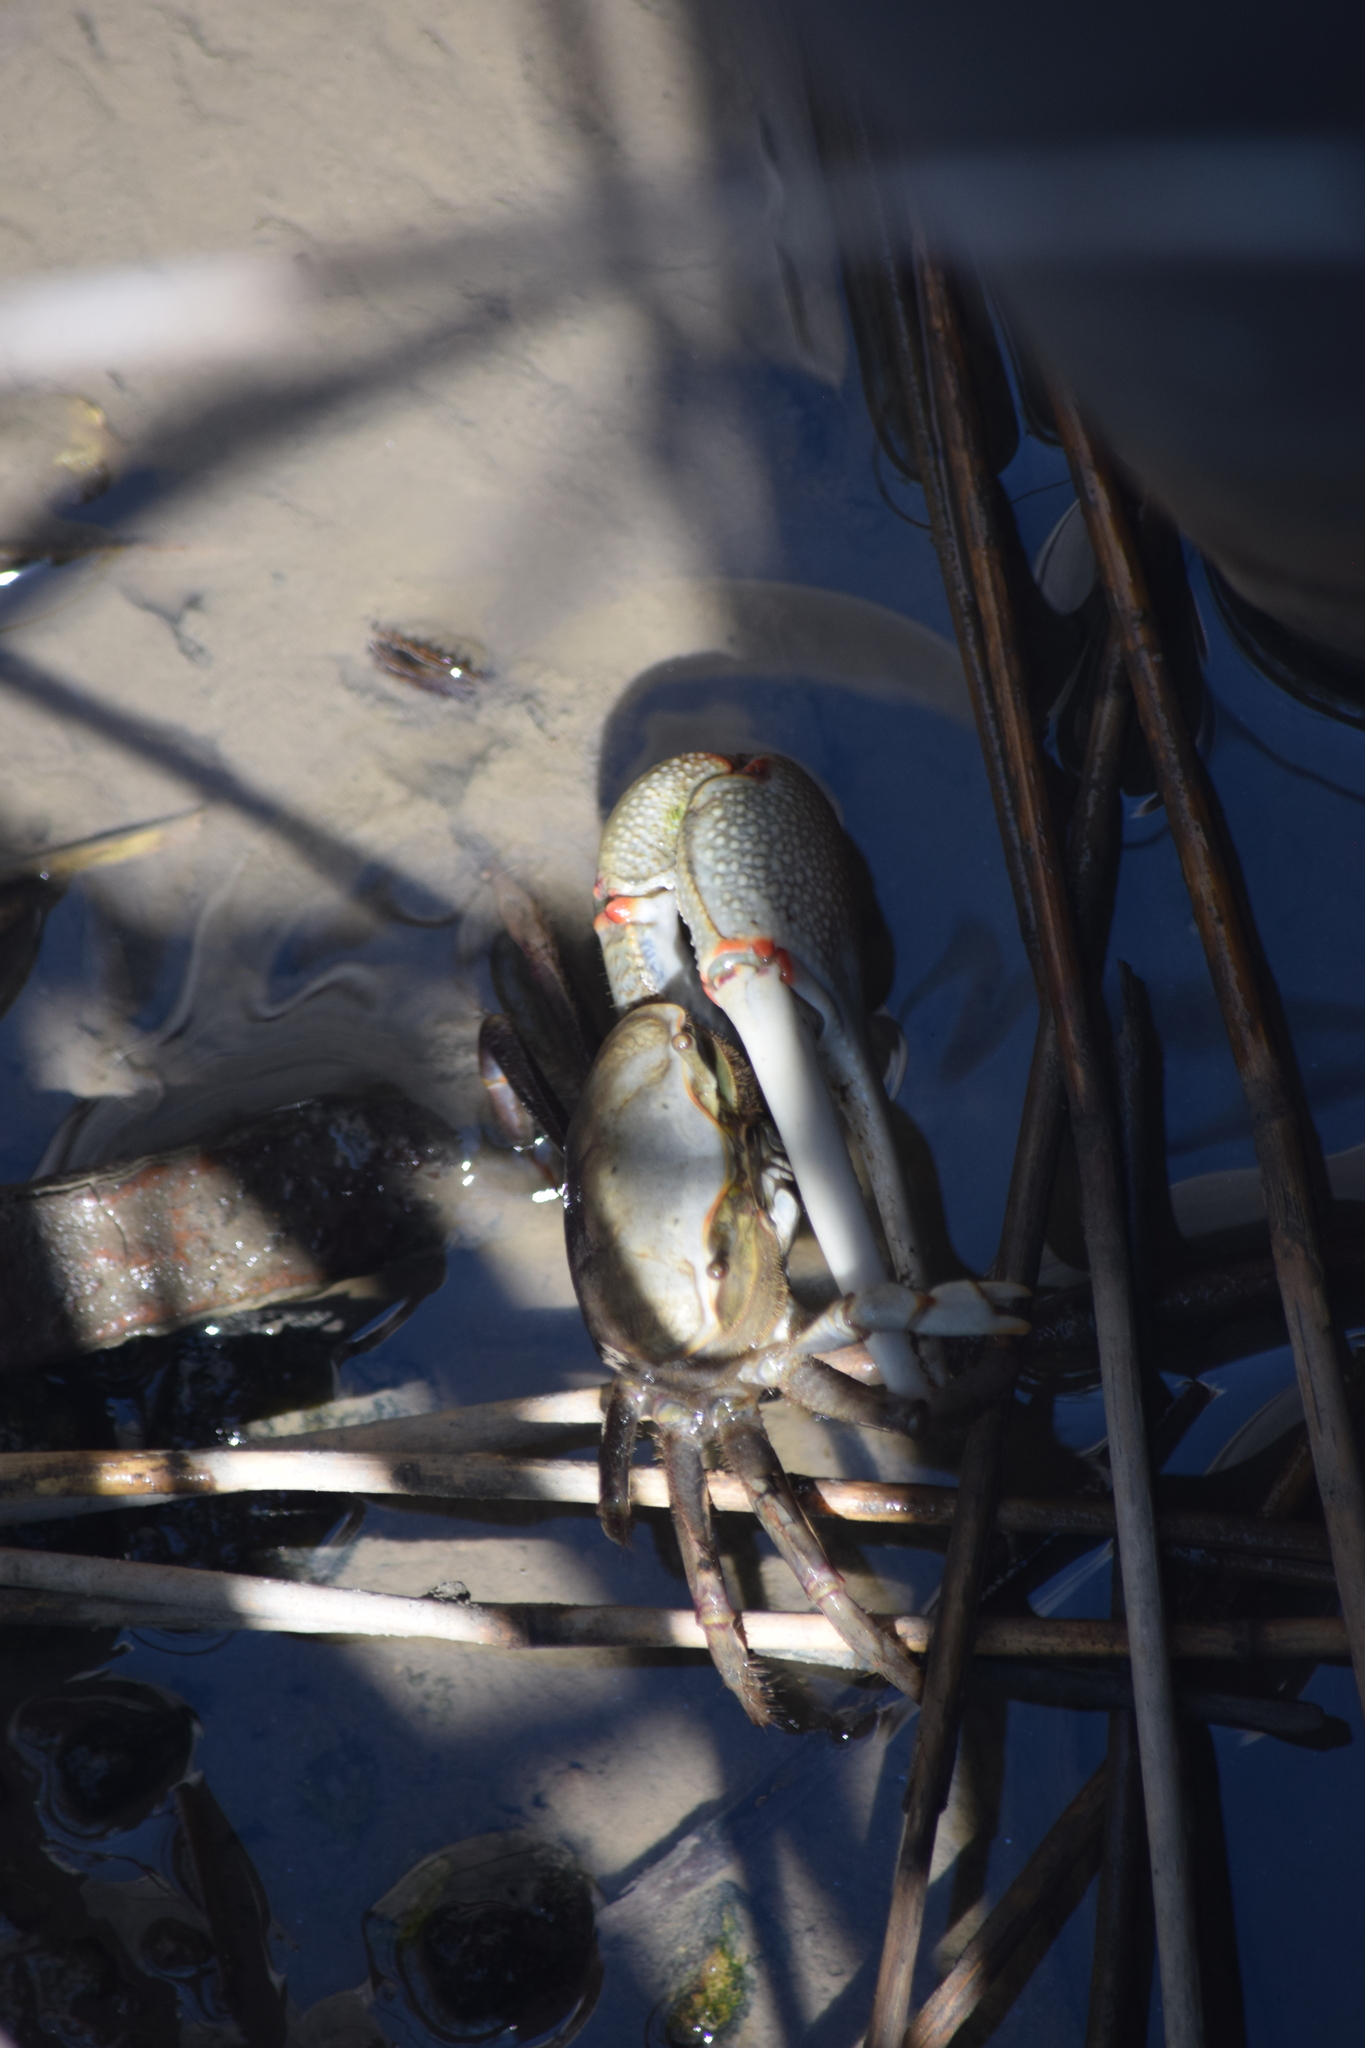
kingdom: Animalia
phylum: Arthropoda
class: Malacostraca
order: Decapoda
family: Ocypodidae
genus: Minuca
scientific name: Minuca minax
